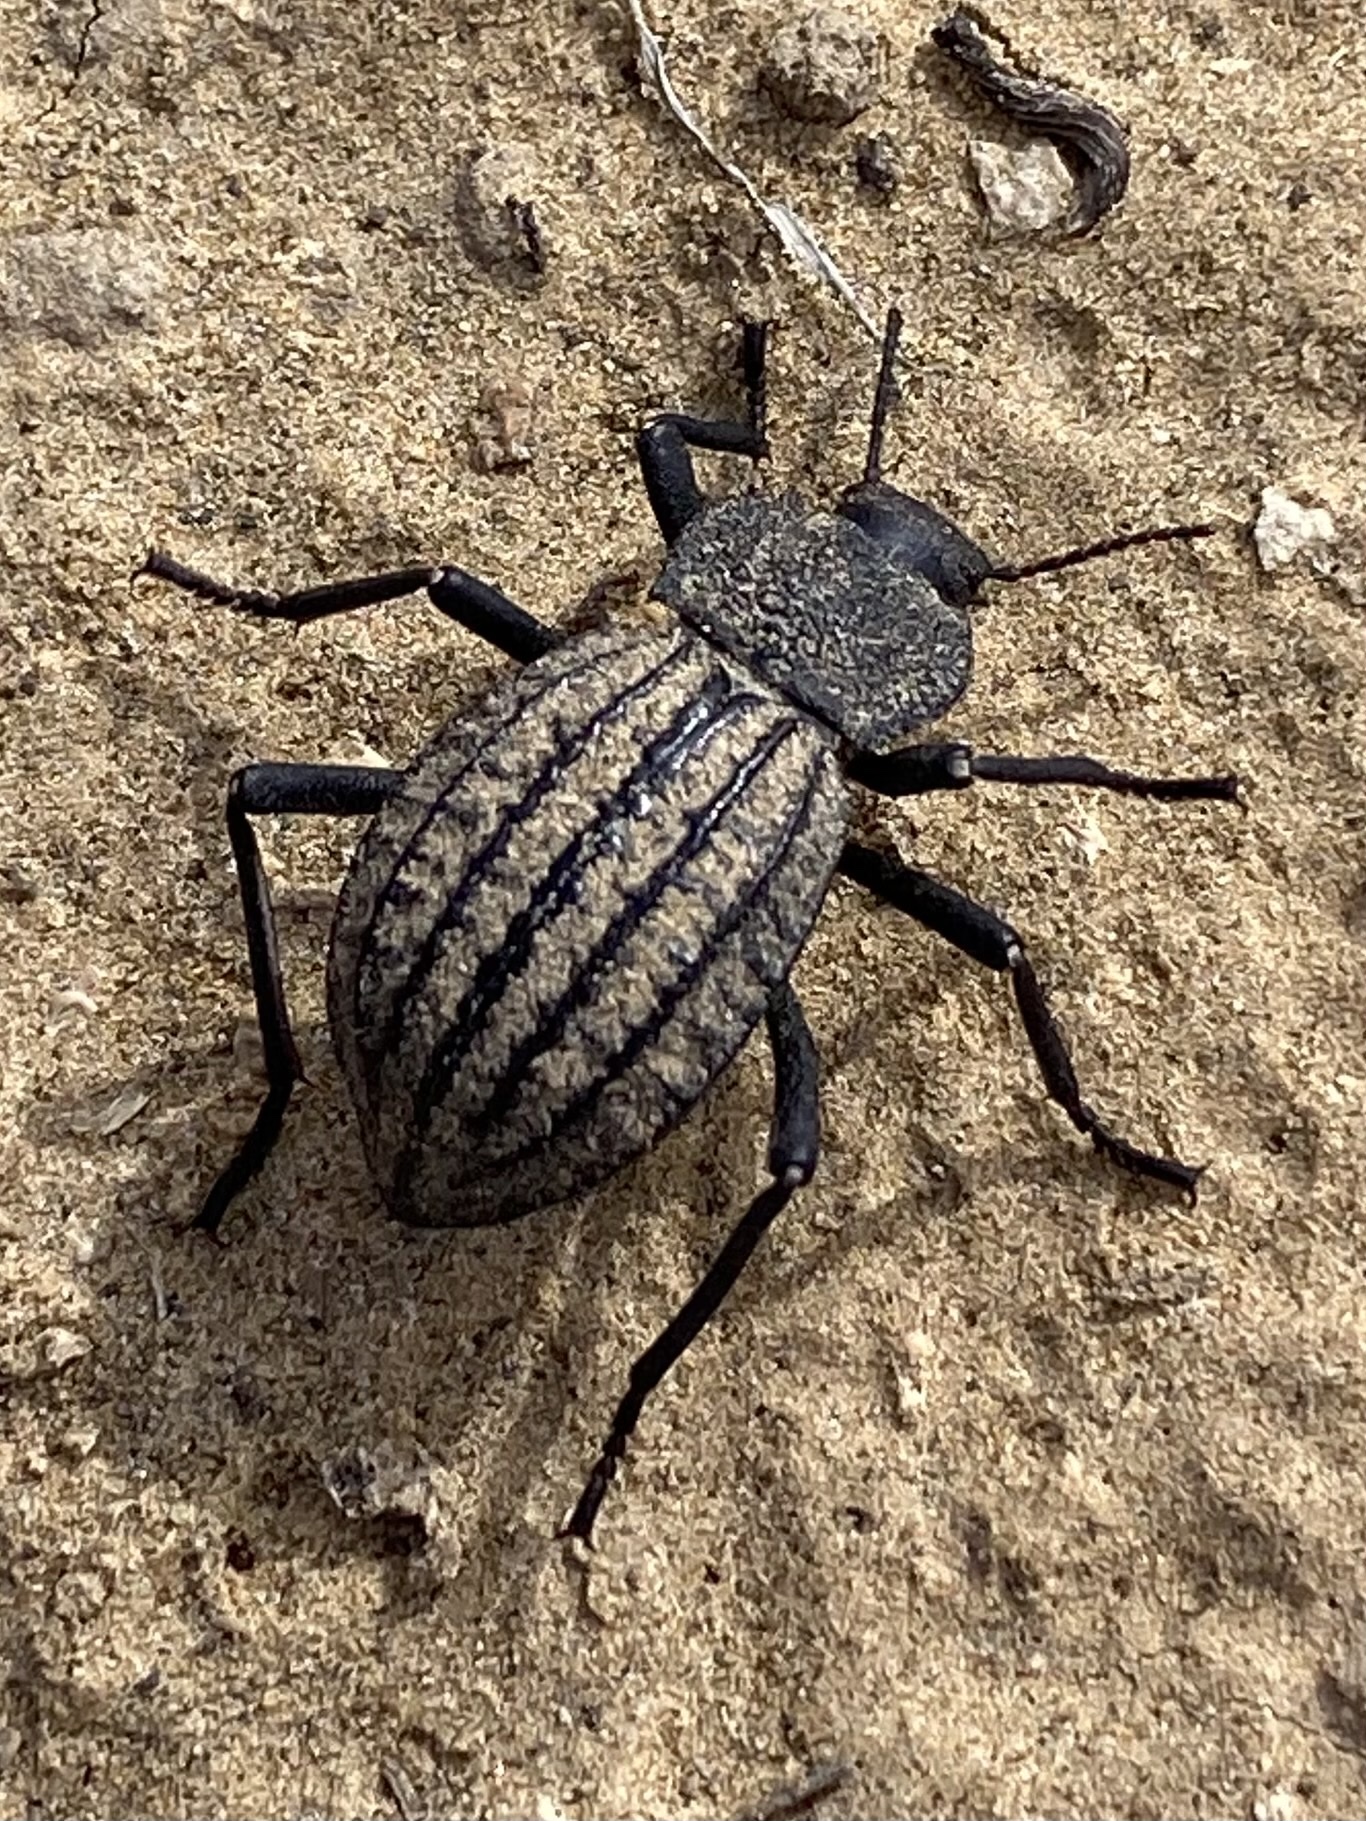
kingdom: Animalia
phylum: Arthropoda
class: Insecta
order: Coleoptera
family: Tenebrionidae
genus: Philolithus
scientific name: Philolithus sordidus
